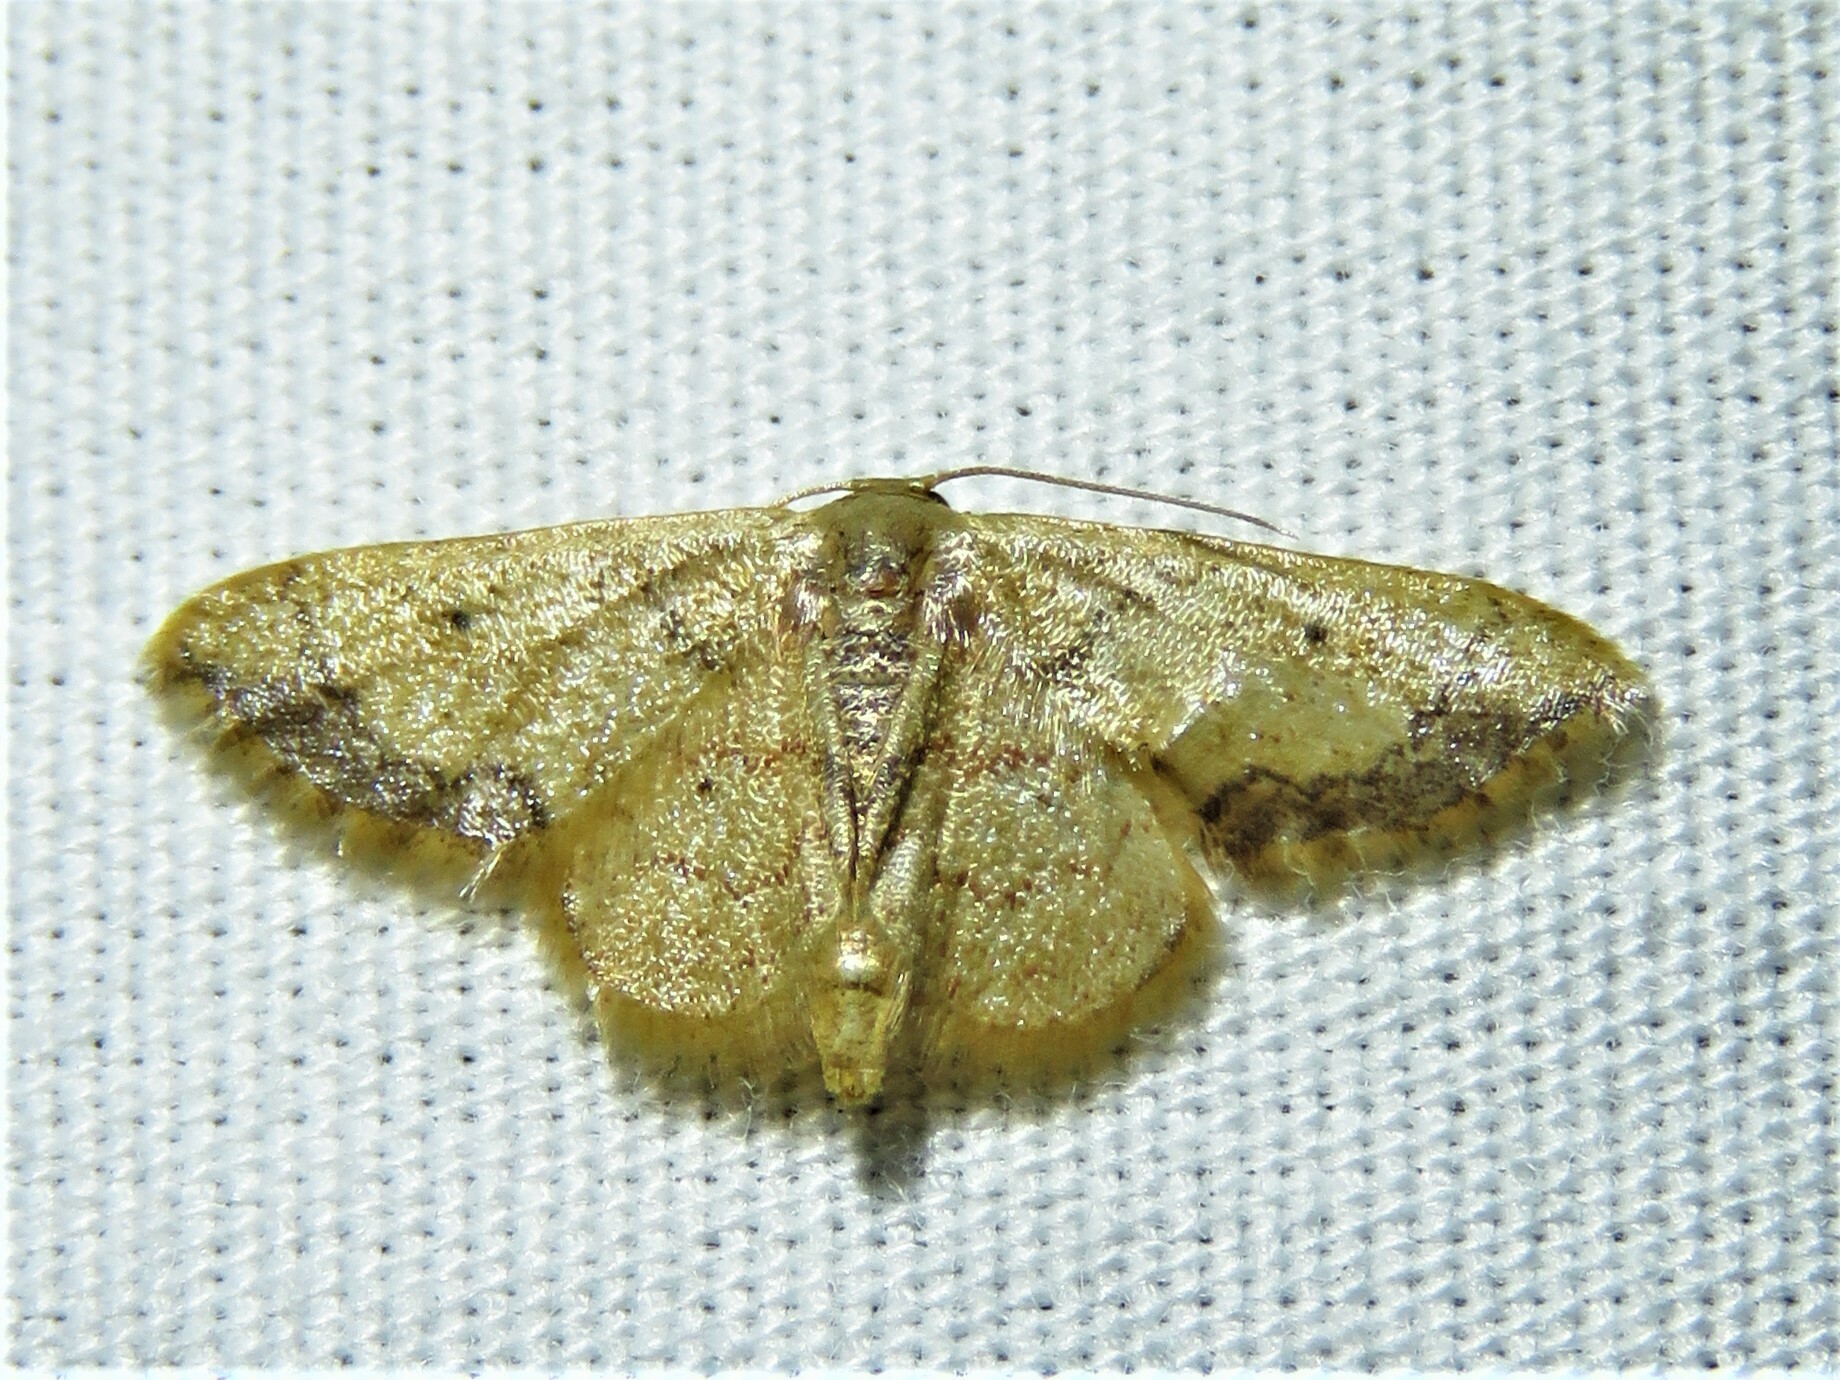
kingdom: Animalia
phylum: Arthropoda
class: Insecta
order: Lepidoptera
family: Geometridae
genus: Idaea
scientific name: Idaea kendallaria
